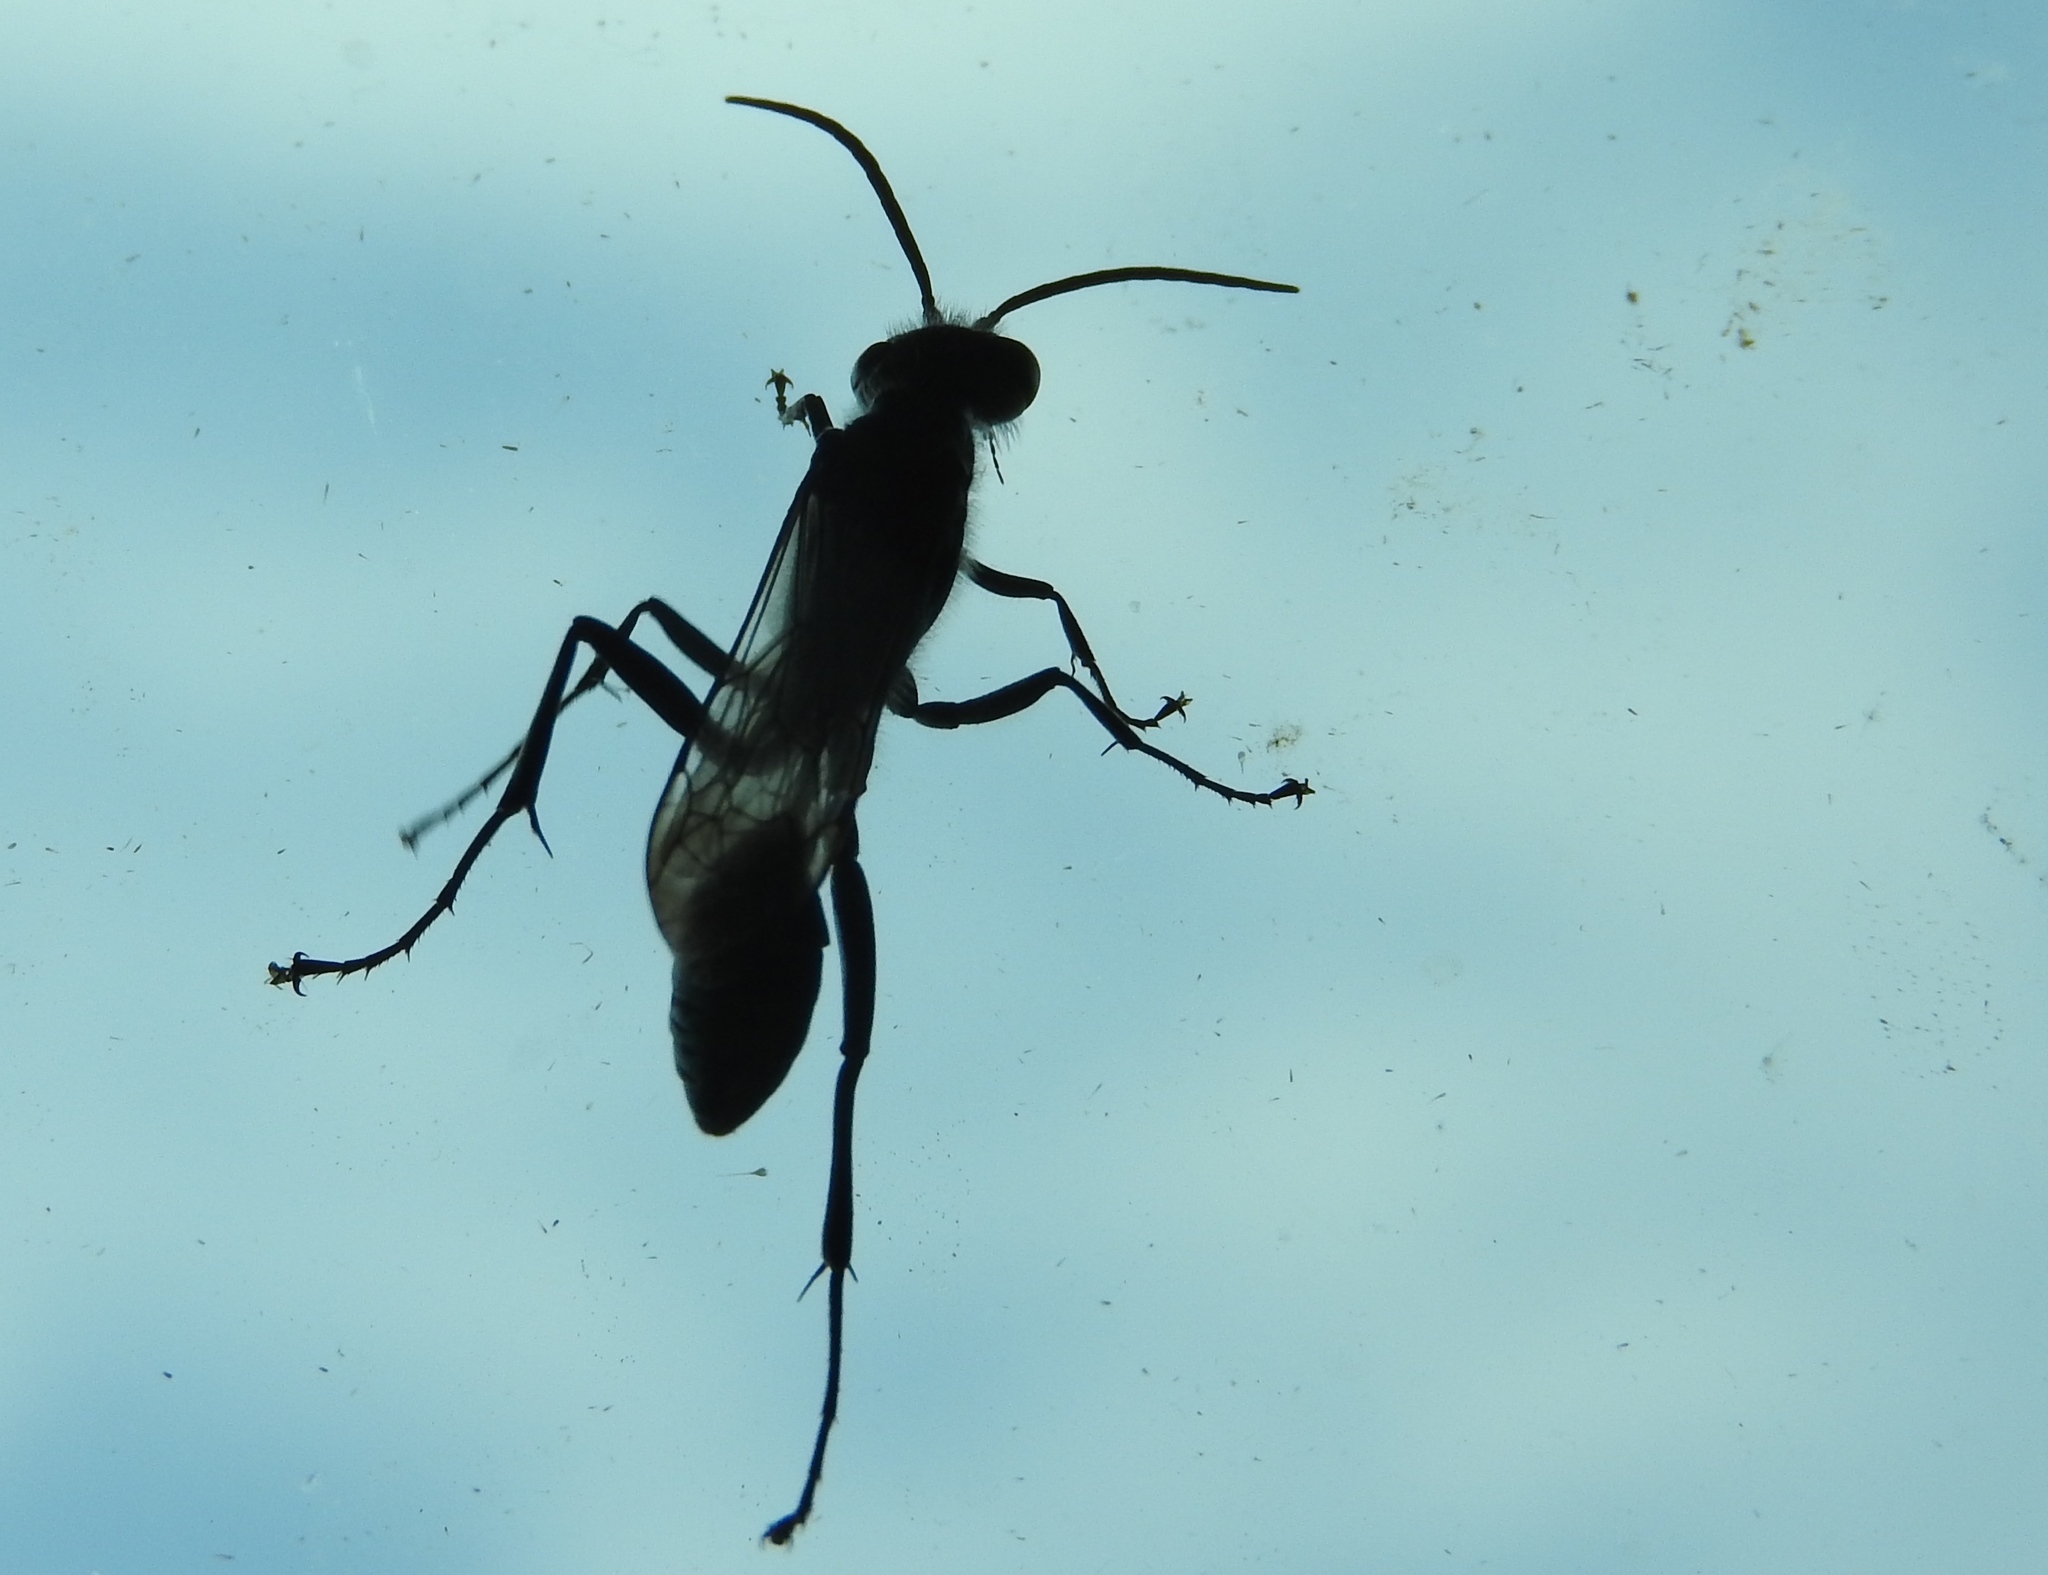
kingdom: Animalia
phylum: Arthropoda
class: Insecta
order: Hymenoptera
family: Sphecidae
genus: Chalybion
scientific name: Chalybion
